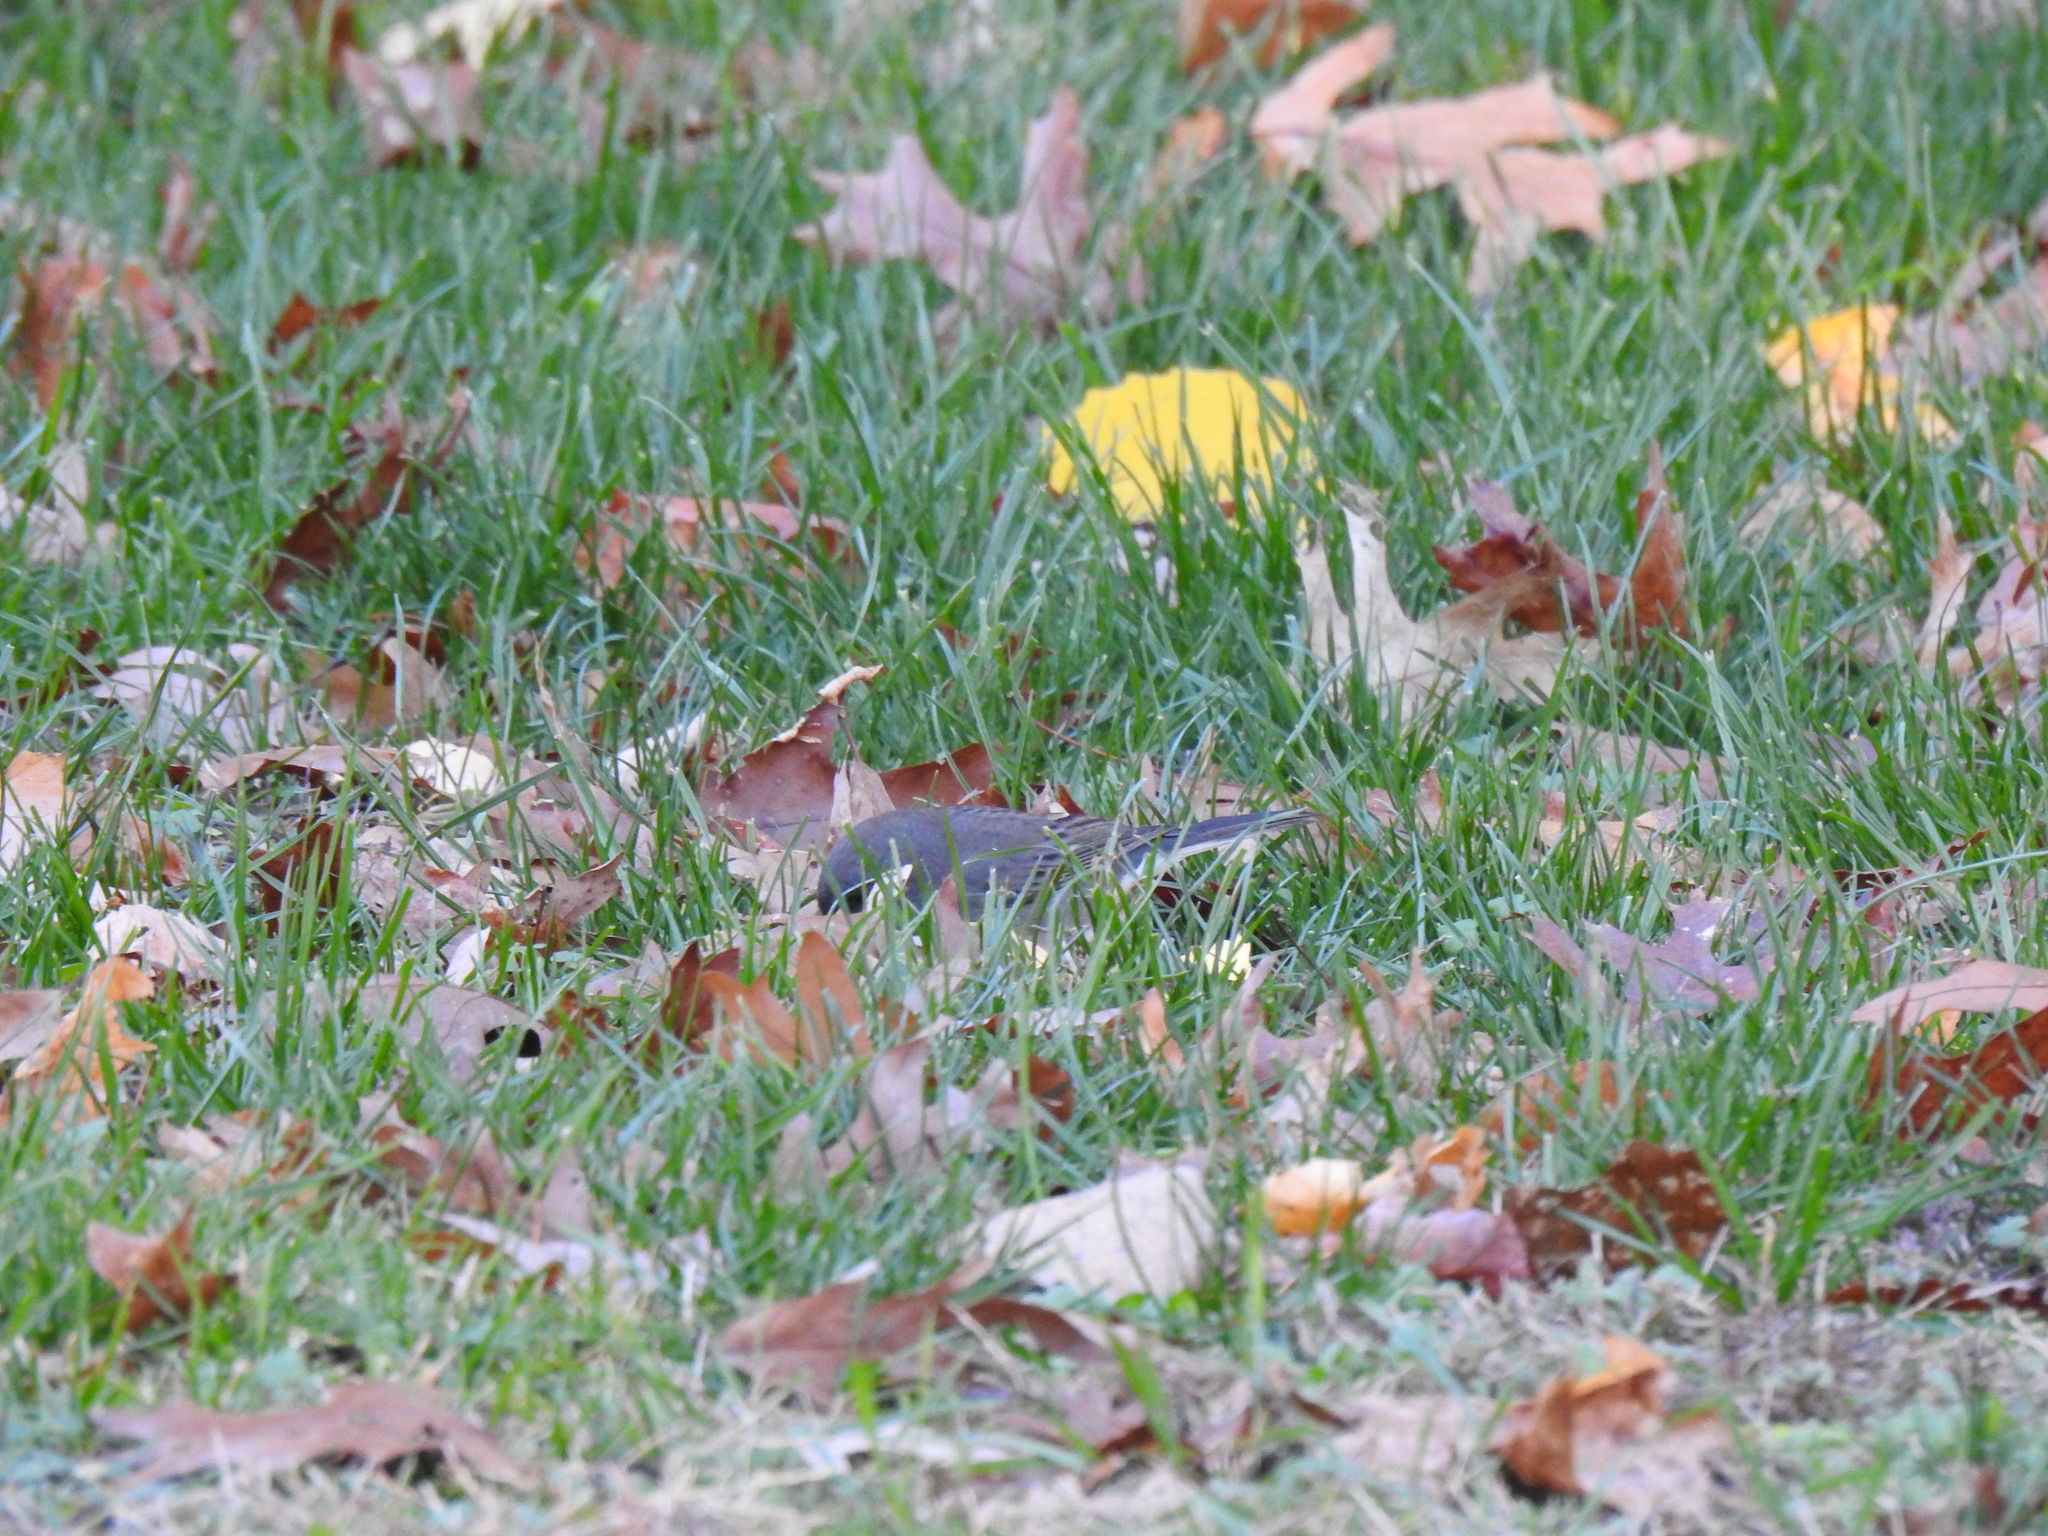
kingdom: Animalia
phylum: Chordata
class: Aves
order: Passeriformes
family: Passerellidae
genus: Junco
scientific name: Junco hyemalis
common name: Dark-eyed junco
